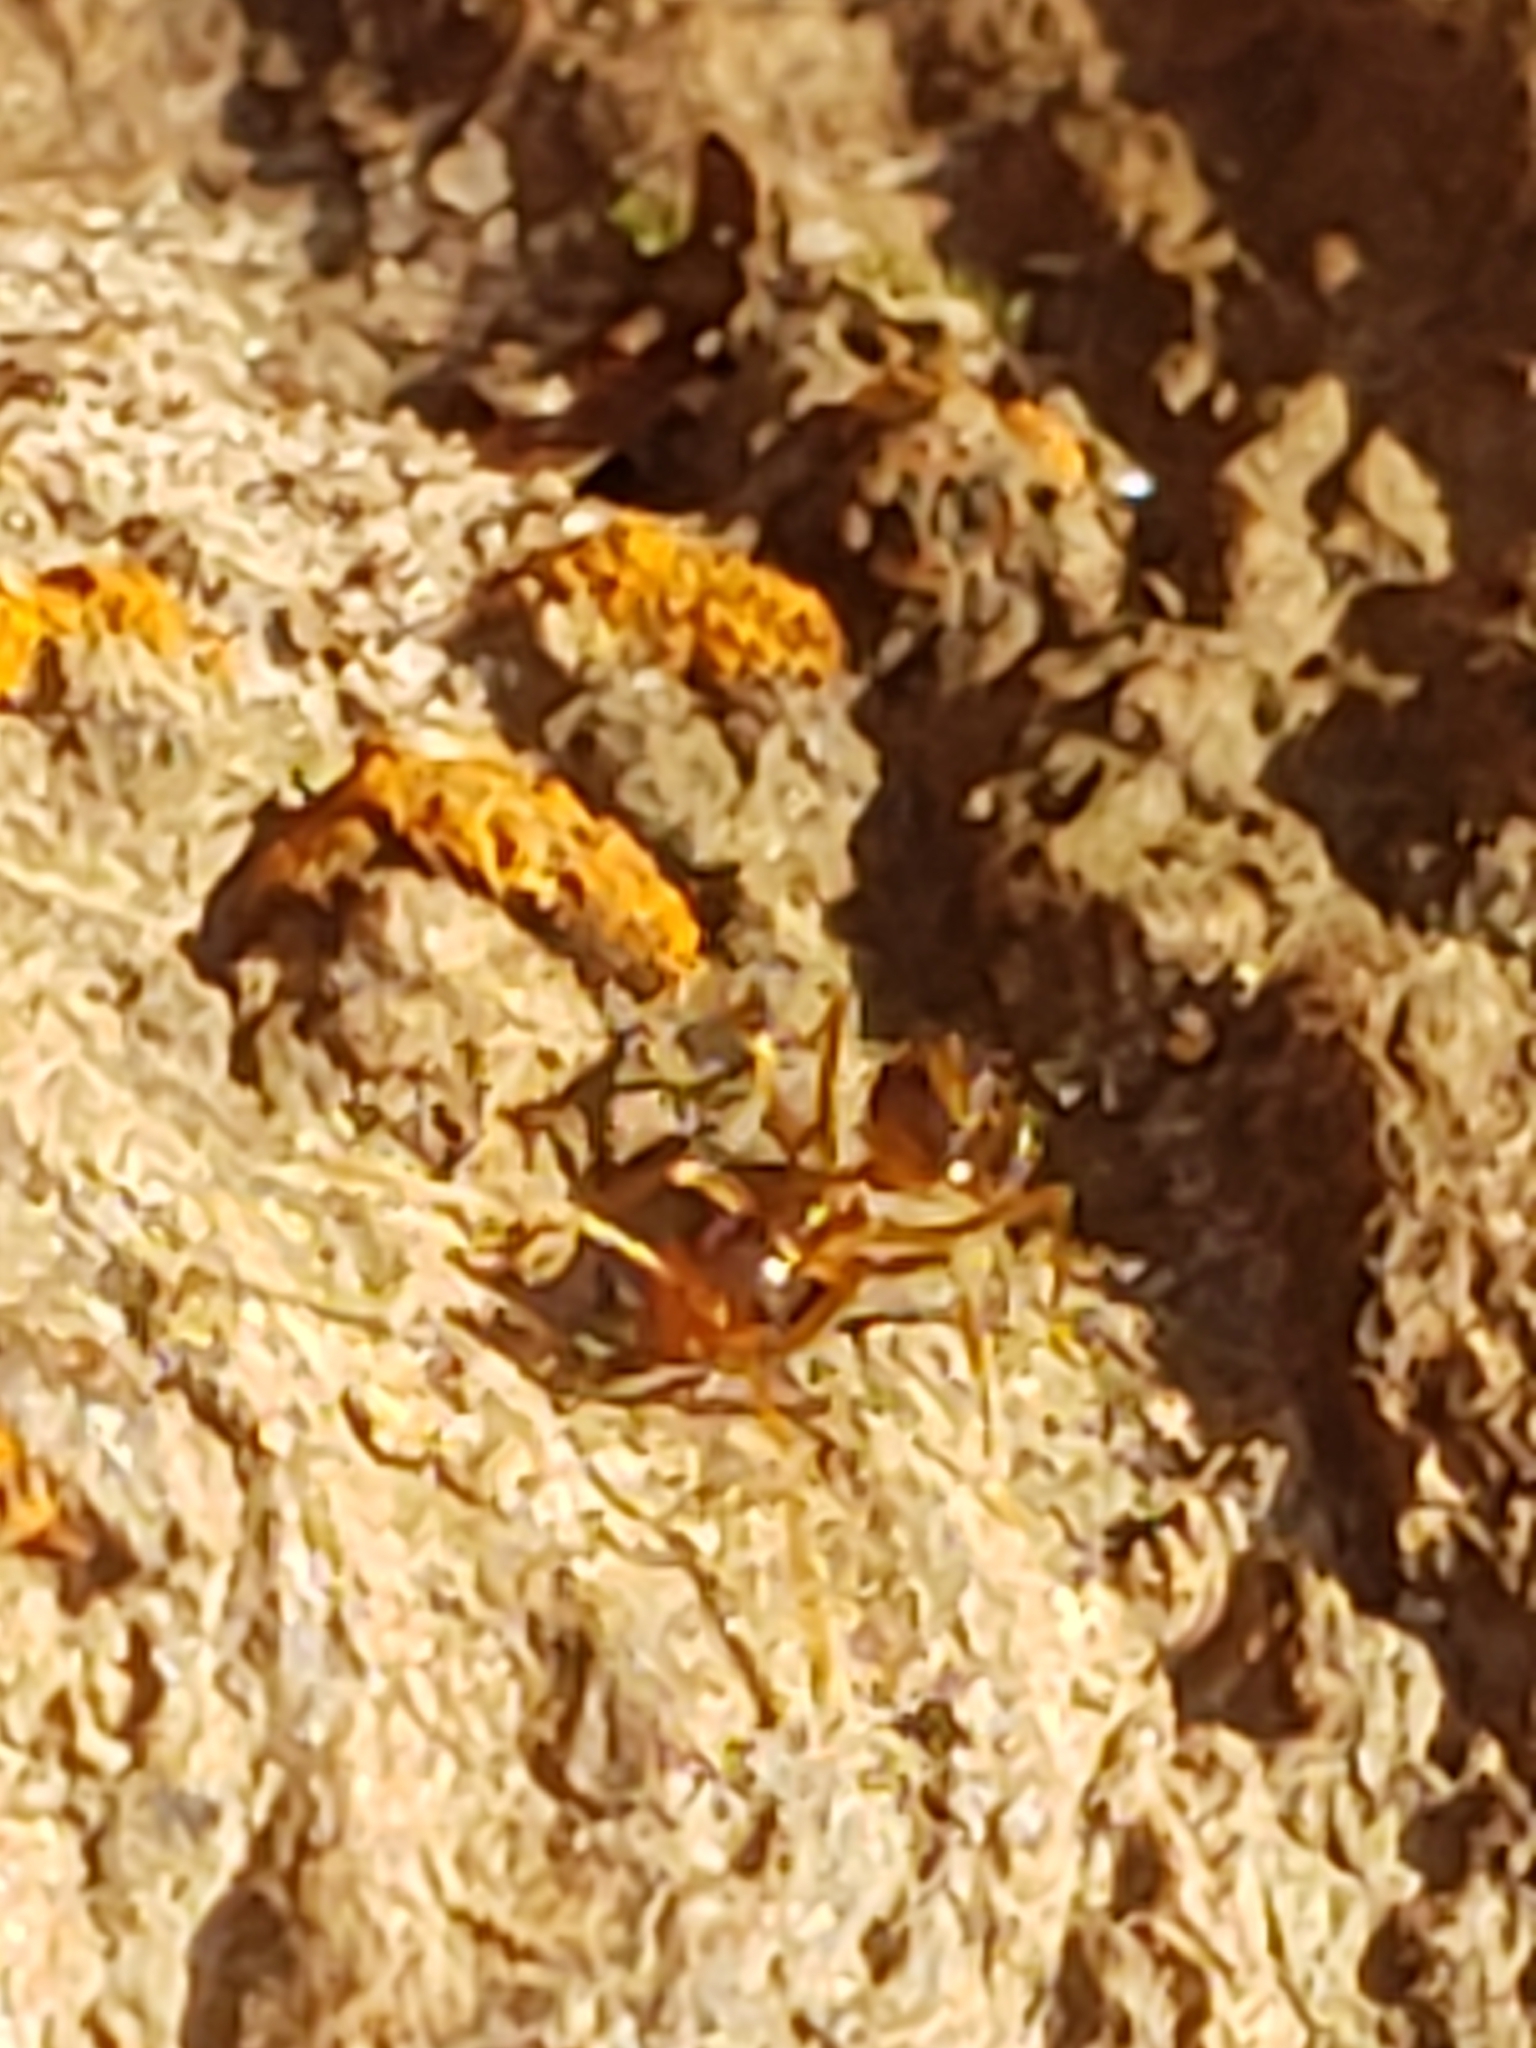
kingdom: Animalia
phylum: Arthropoda
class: Insecta
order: Hymenoptera
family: Formicidae
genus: Prenolepis
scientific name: Prenolepis imparis
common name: Small honey ant
